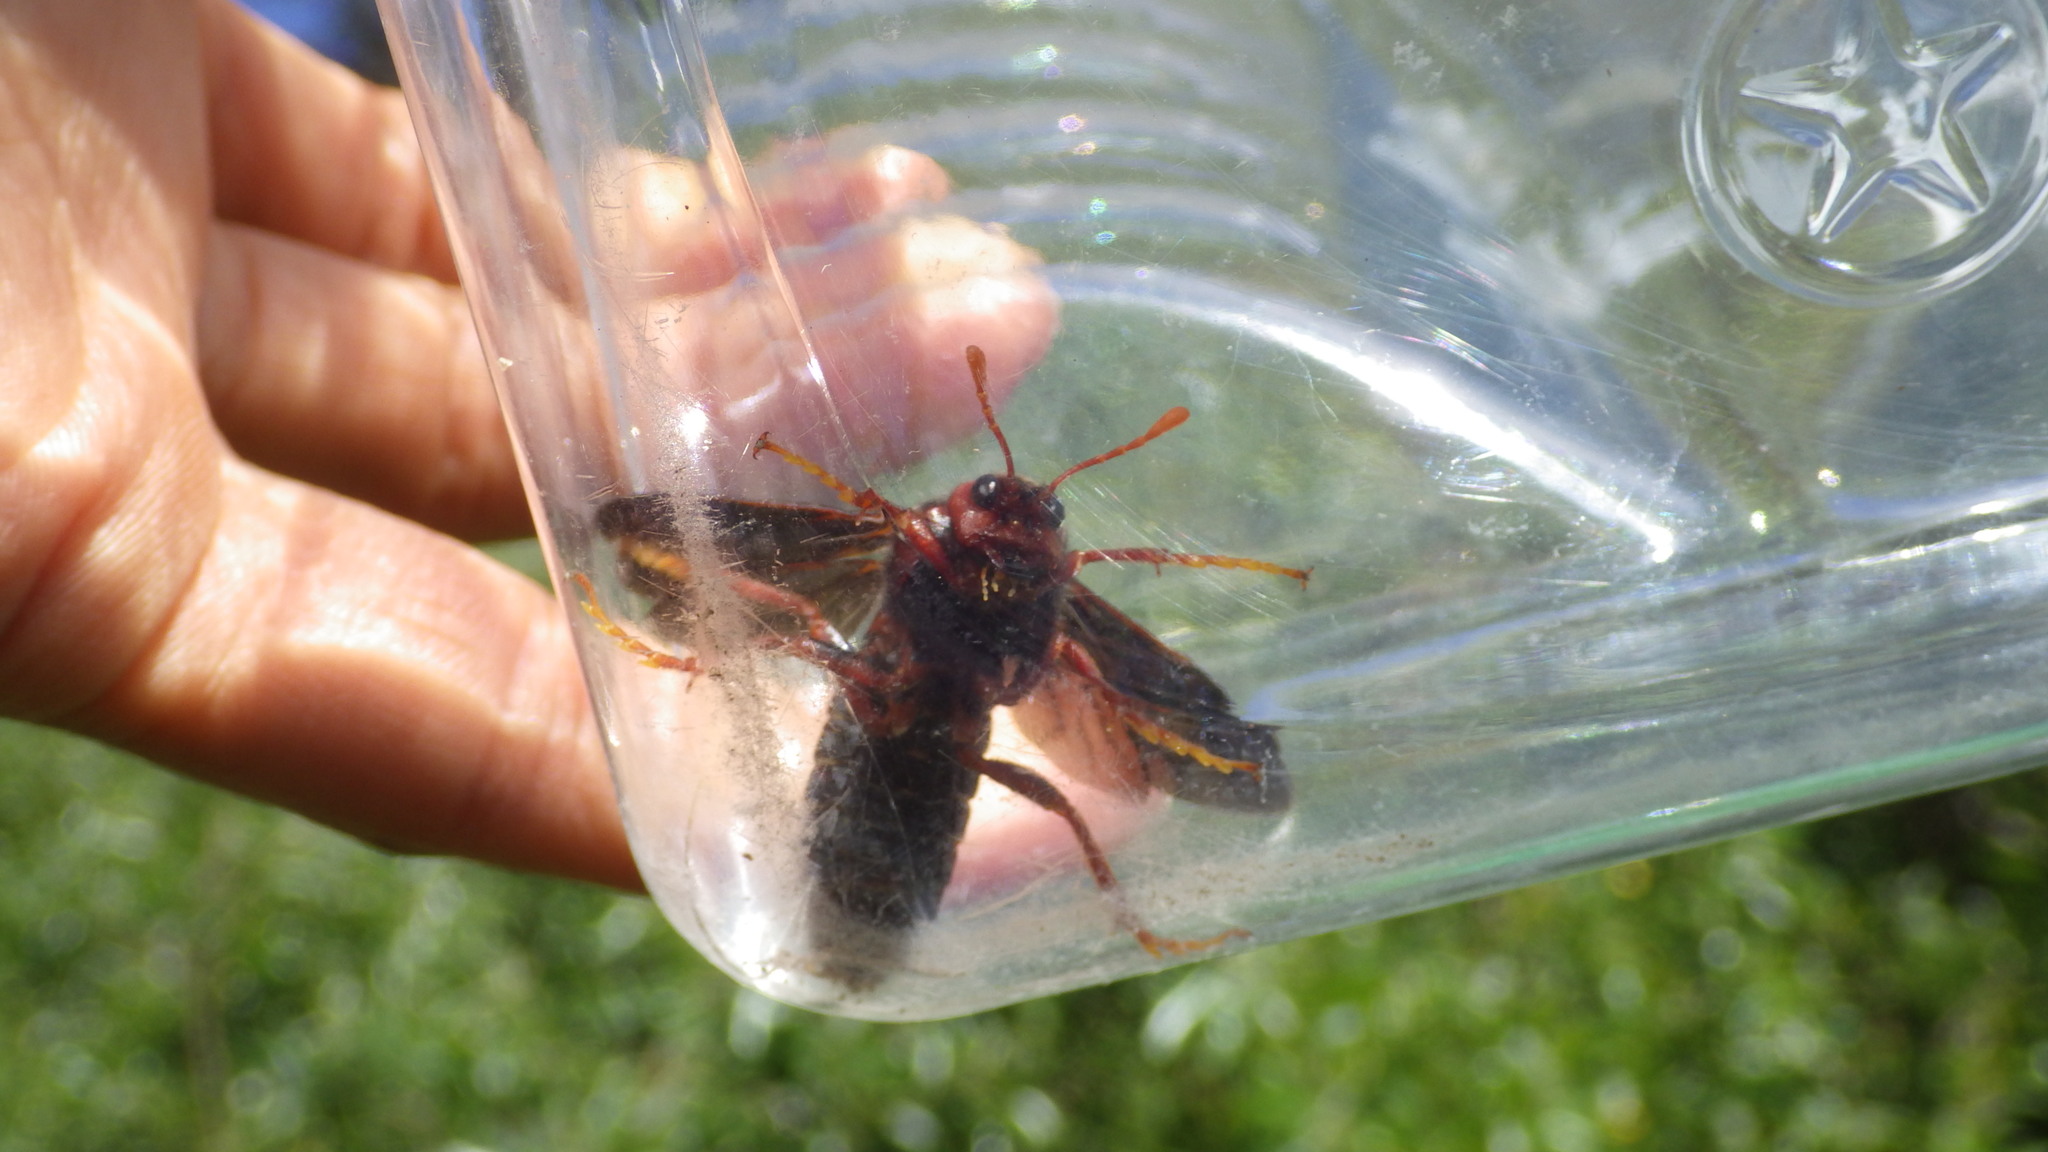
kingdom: Animalia
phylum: Arthropoda
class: Insecta
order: Hymenoptera
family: Cimbicidae
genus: Cimbex
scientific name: Cimbex
